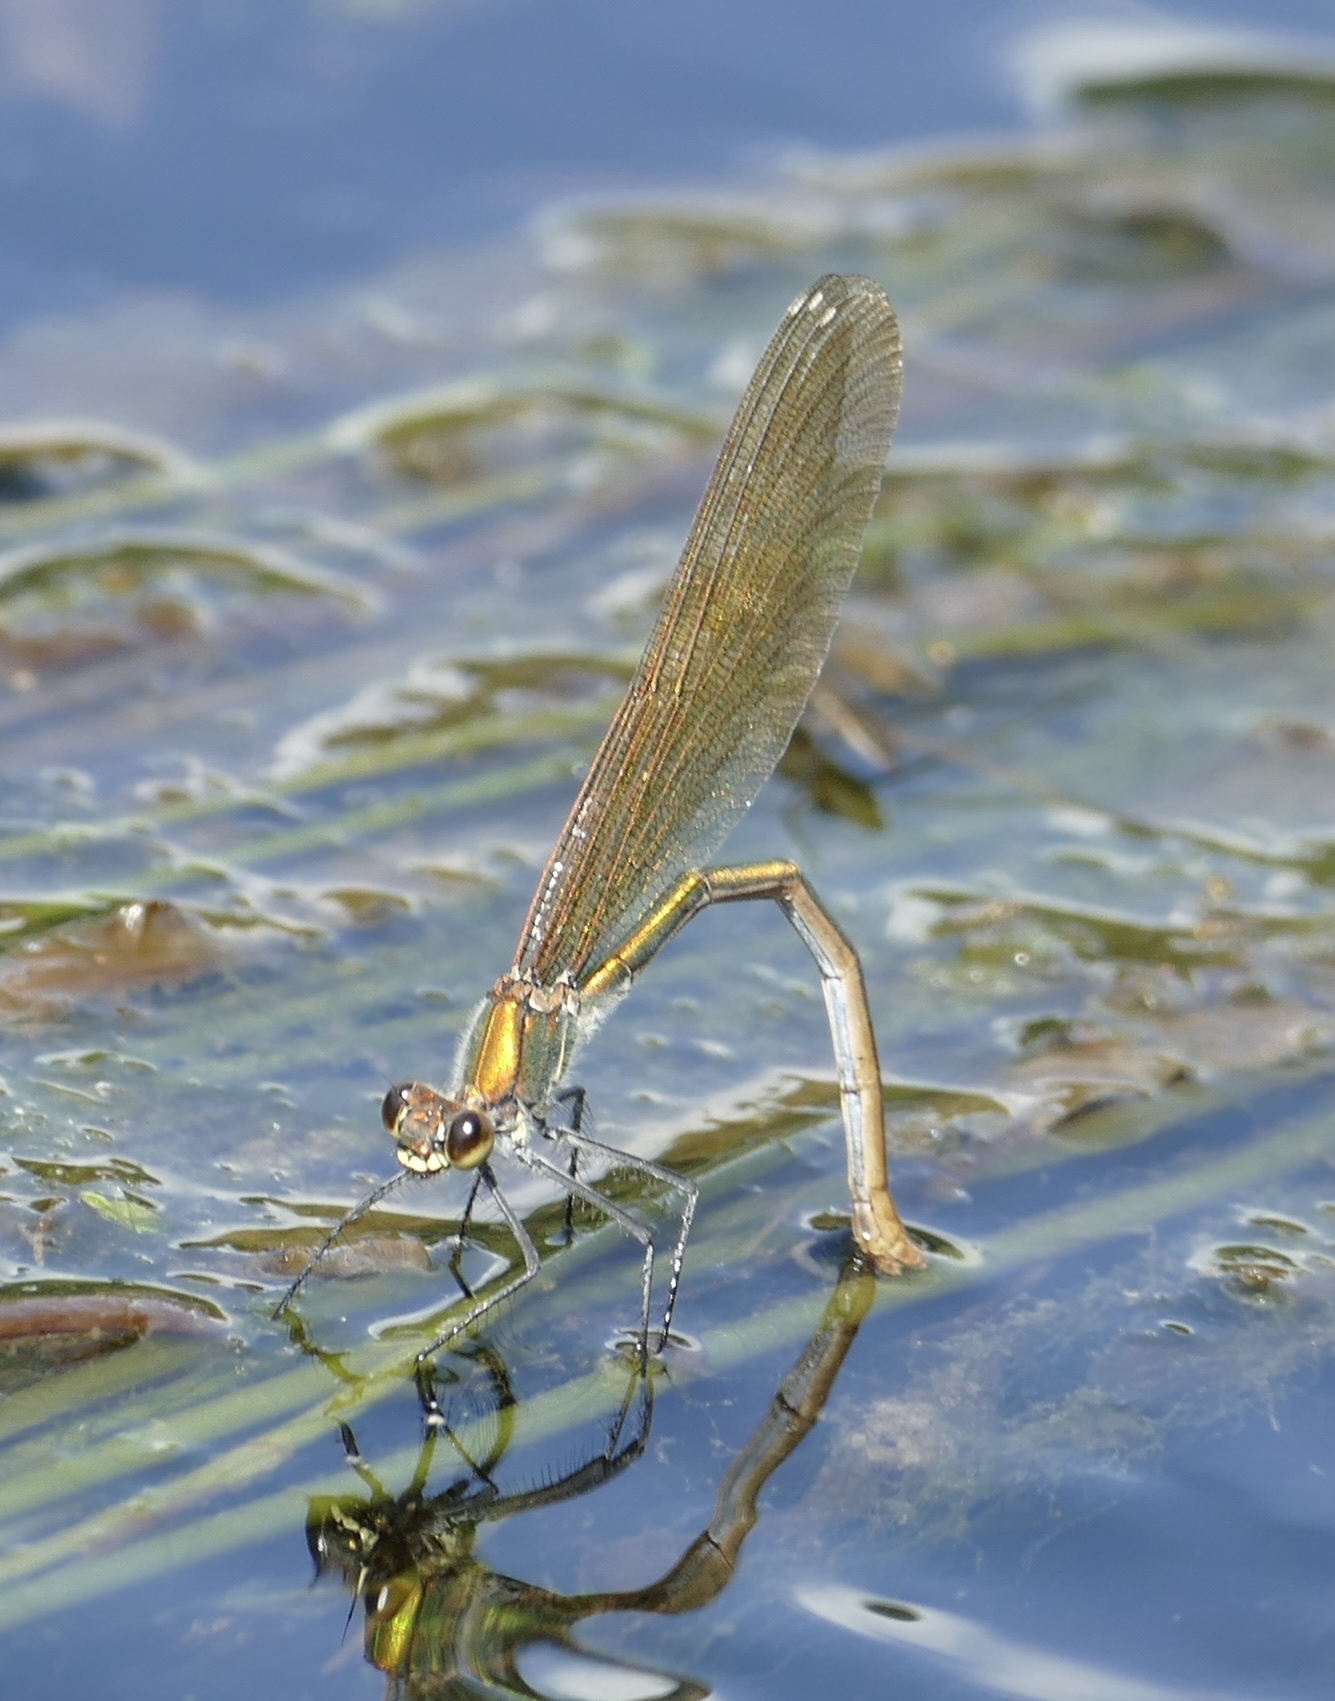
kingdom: Animalia
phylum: Arthropoda
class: Insecta
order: Odonata
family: Calopterygidae
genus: Calopteryx
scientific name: Calopteryx splendens
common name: Banded demoiselle
